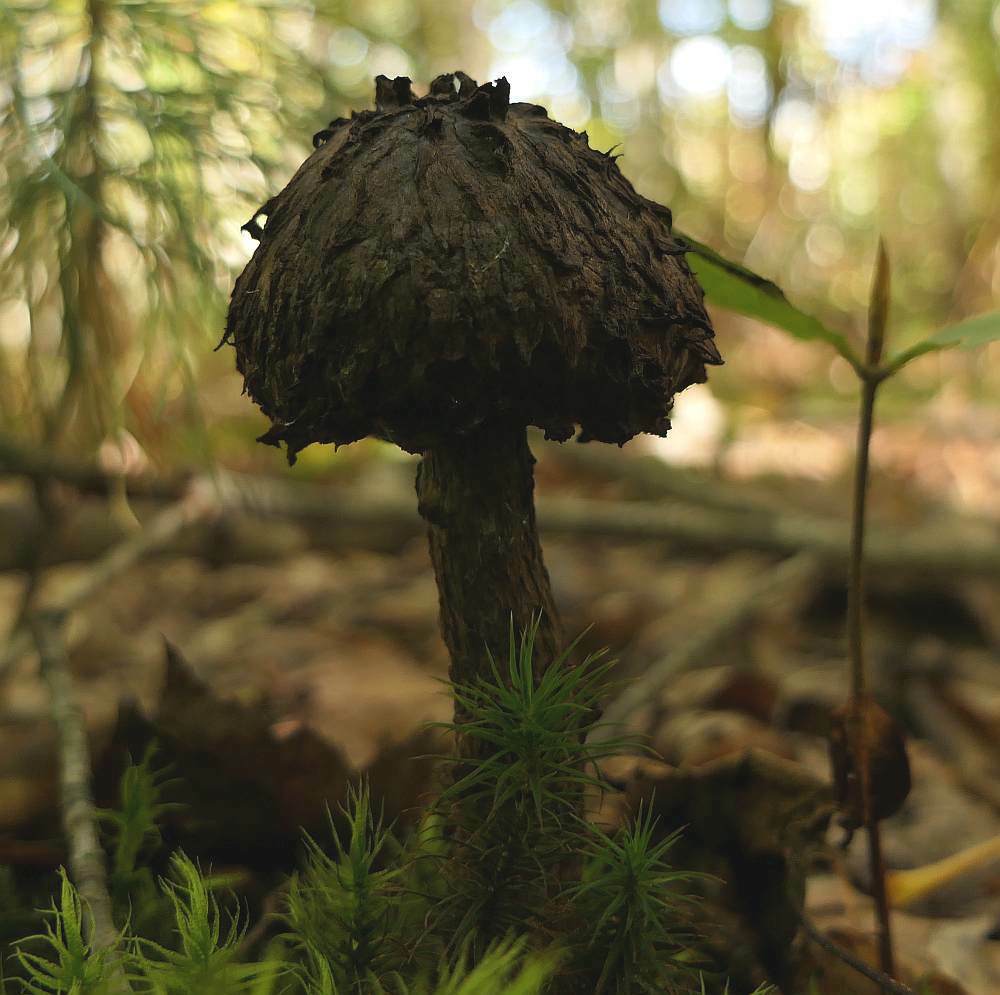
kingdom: Fungi
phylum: Basidiomycota
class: Agaricomycetes
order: Boletales
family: Boletaceae
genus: Strobilomyces
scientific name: Strobilomyces strobilaceus
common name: Old man of the woods
